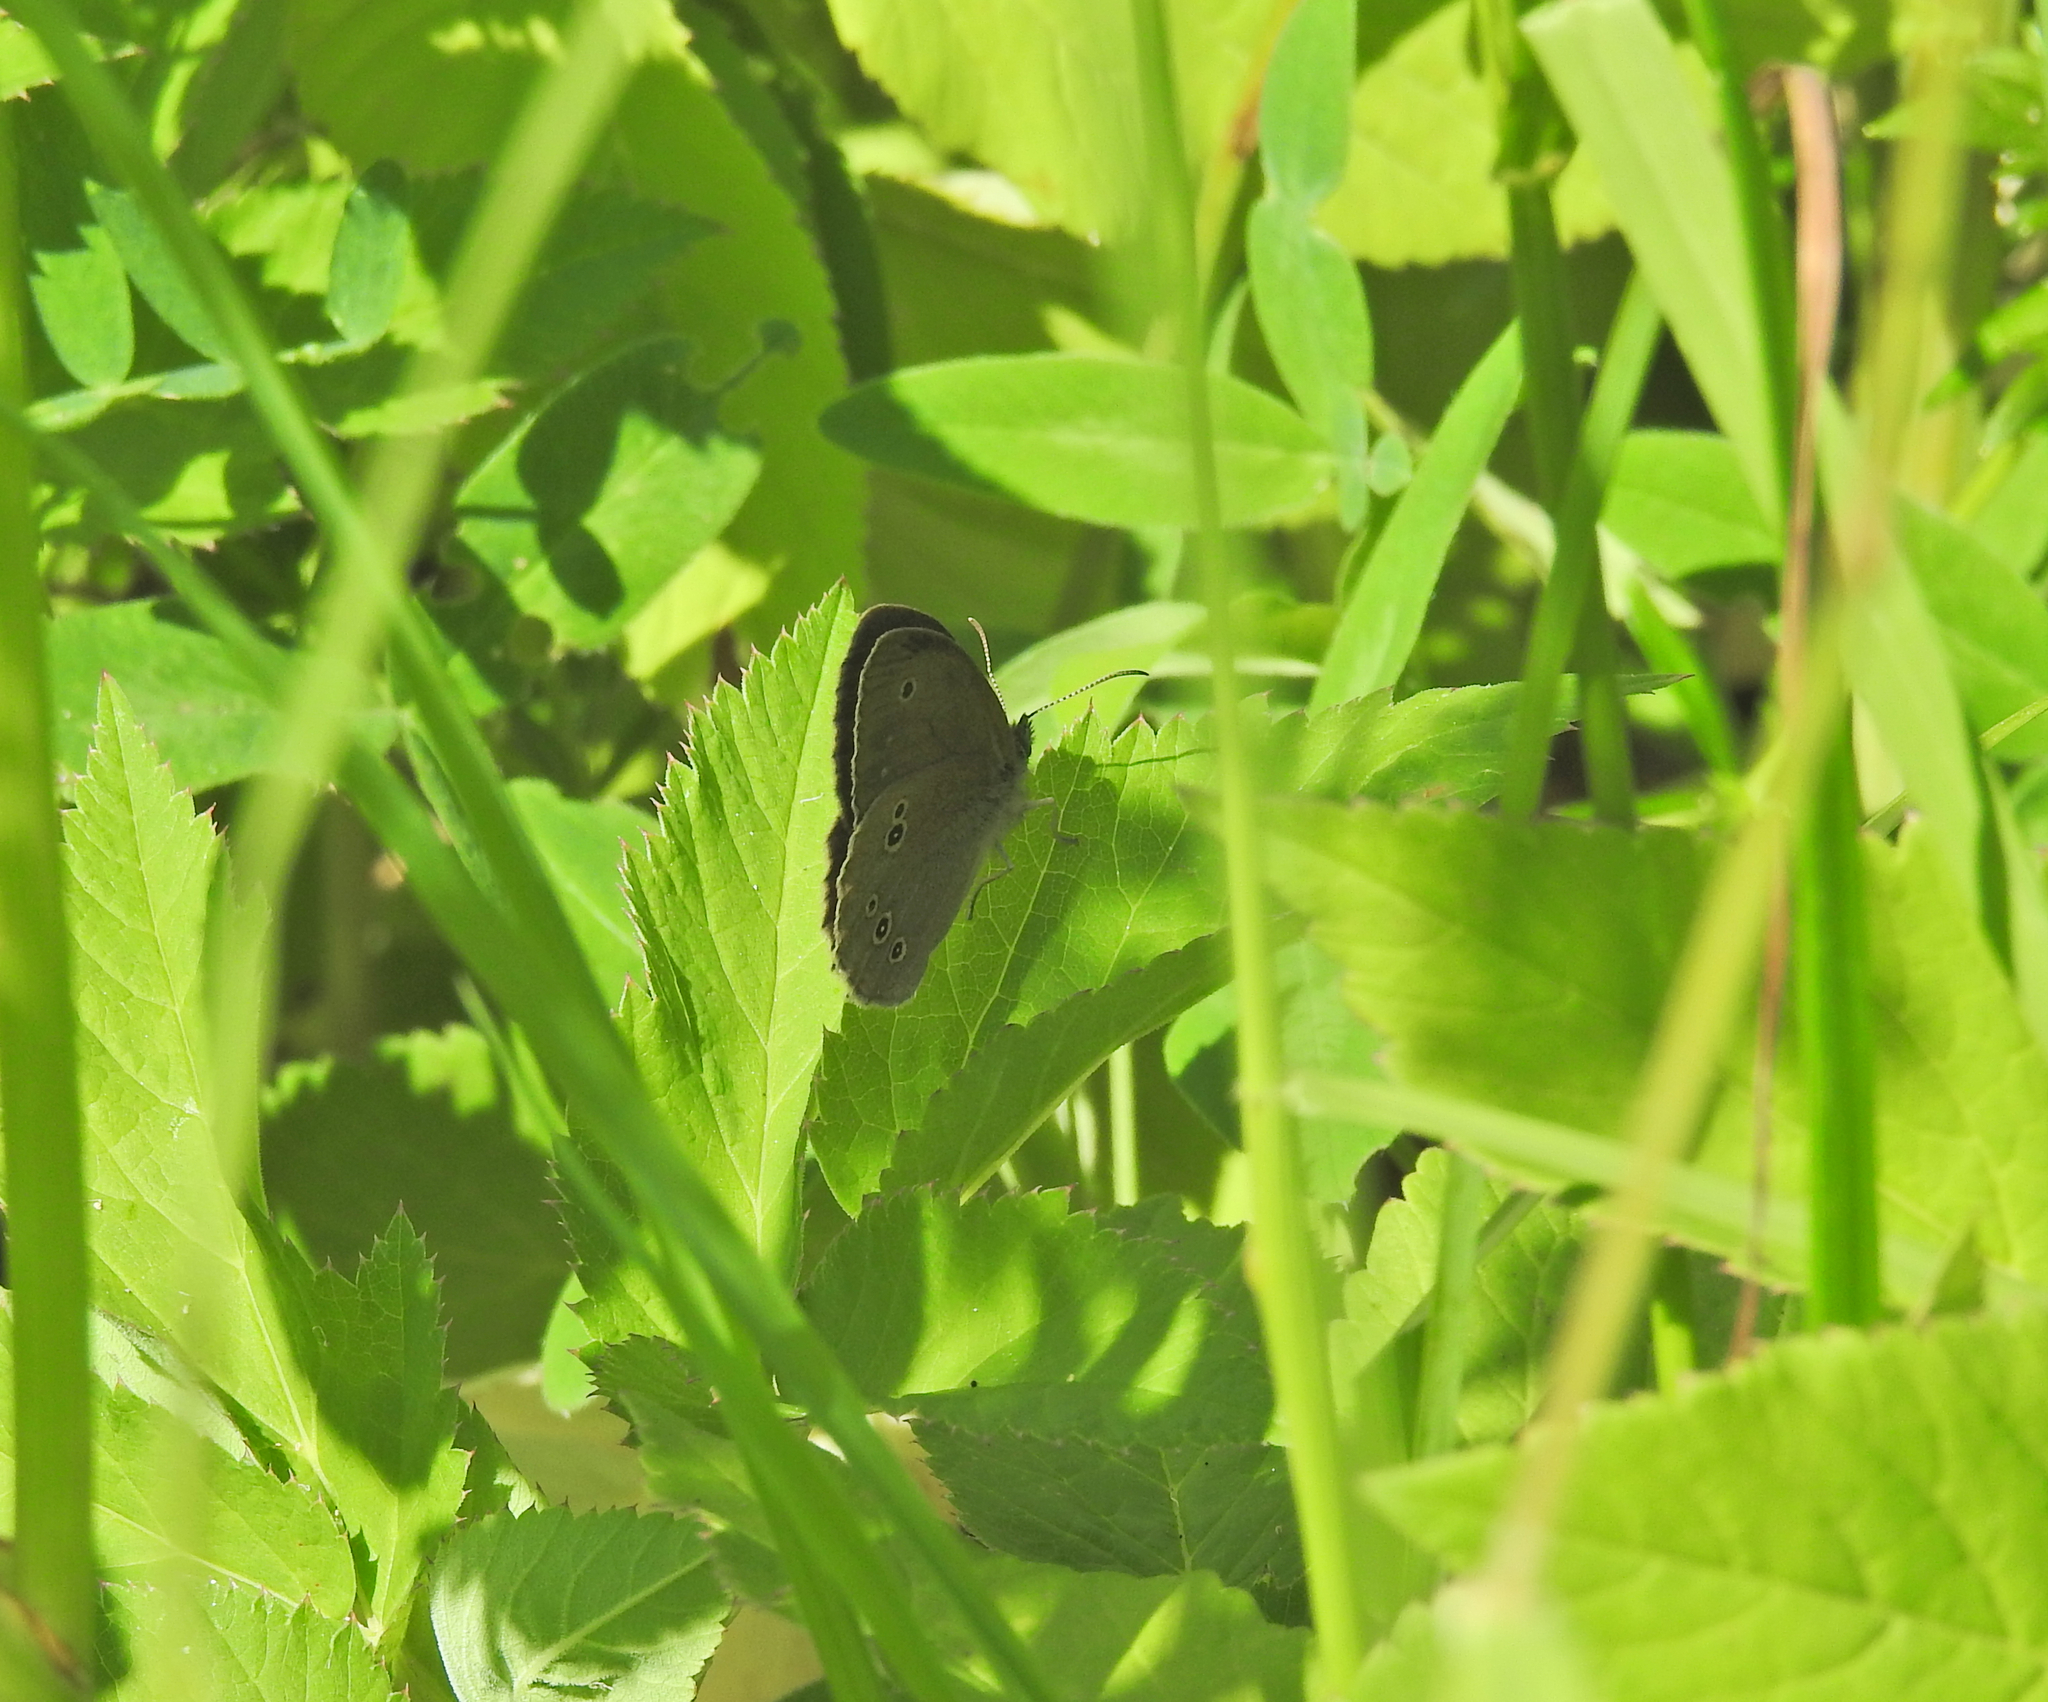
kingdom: Animalia
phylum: Arthropoda
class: Insecta
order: Lepidoptera
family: Nymphalidae
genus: Aphantopus
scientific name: Aphantopus hyperantus
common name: Ringlet
